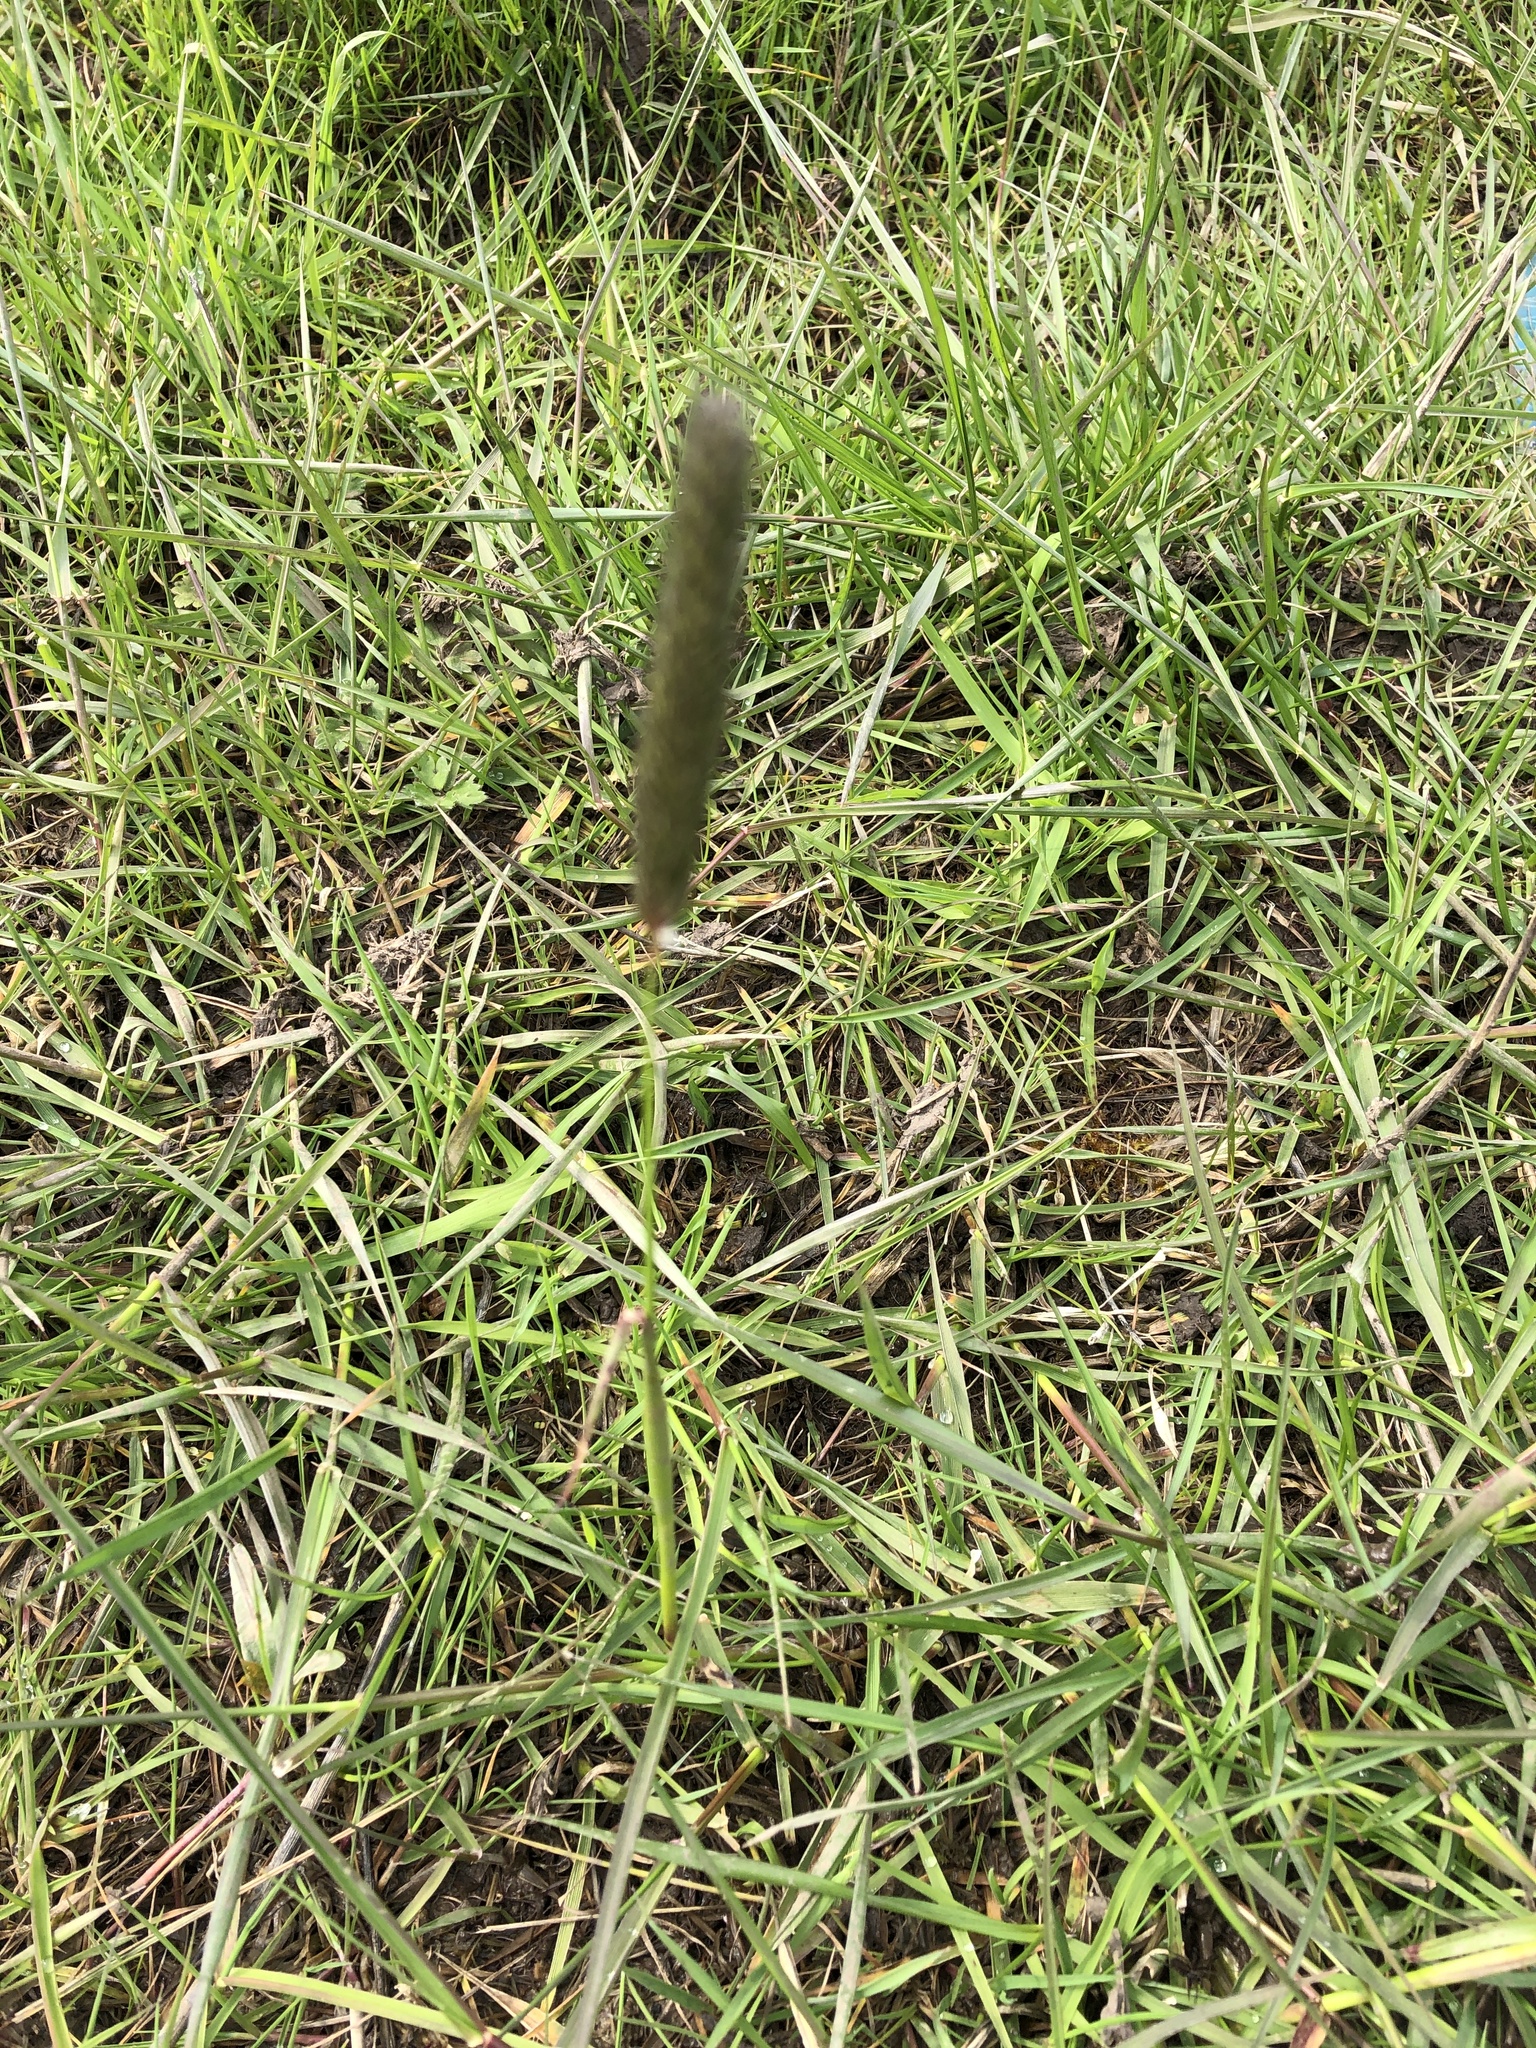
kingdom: Plantae
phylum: Tracheophyta
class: Liliopsida
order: Poales
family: Poaceae
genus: Alopecurus
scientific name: Alopecurus pratensis
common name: Meadow foxtail
